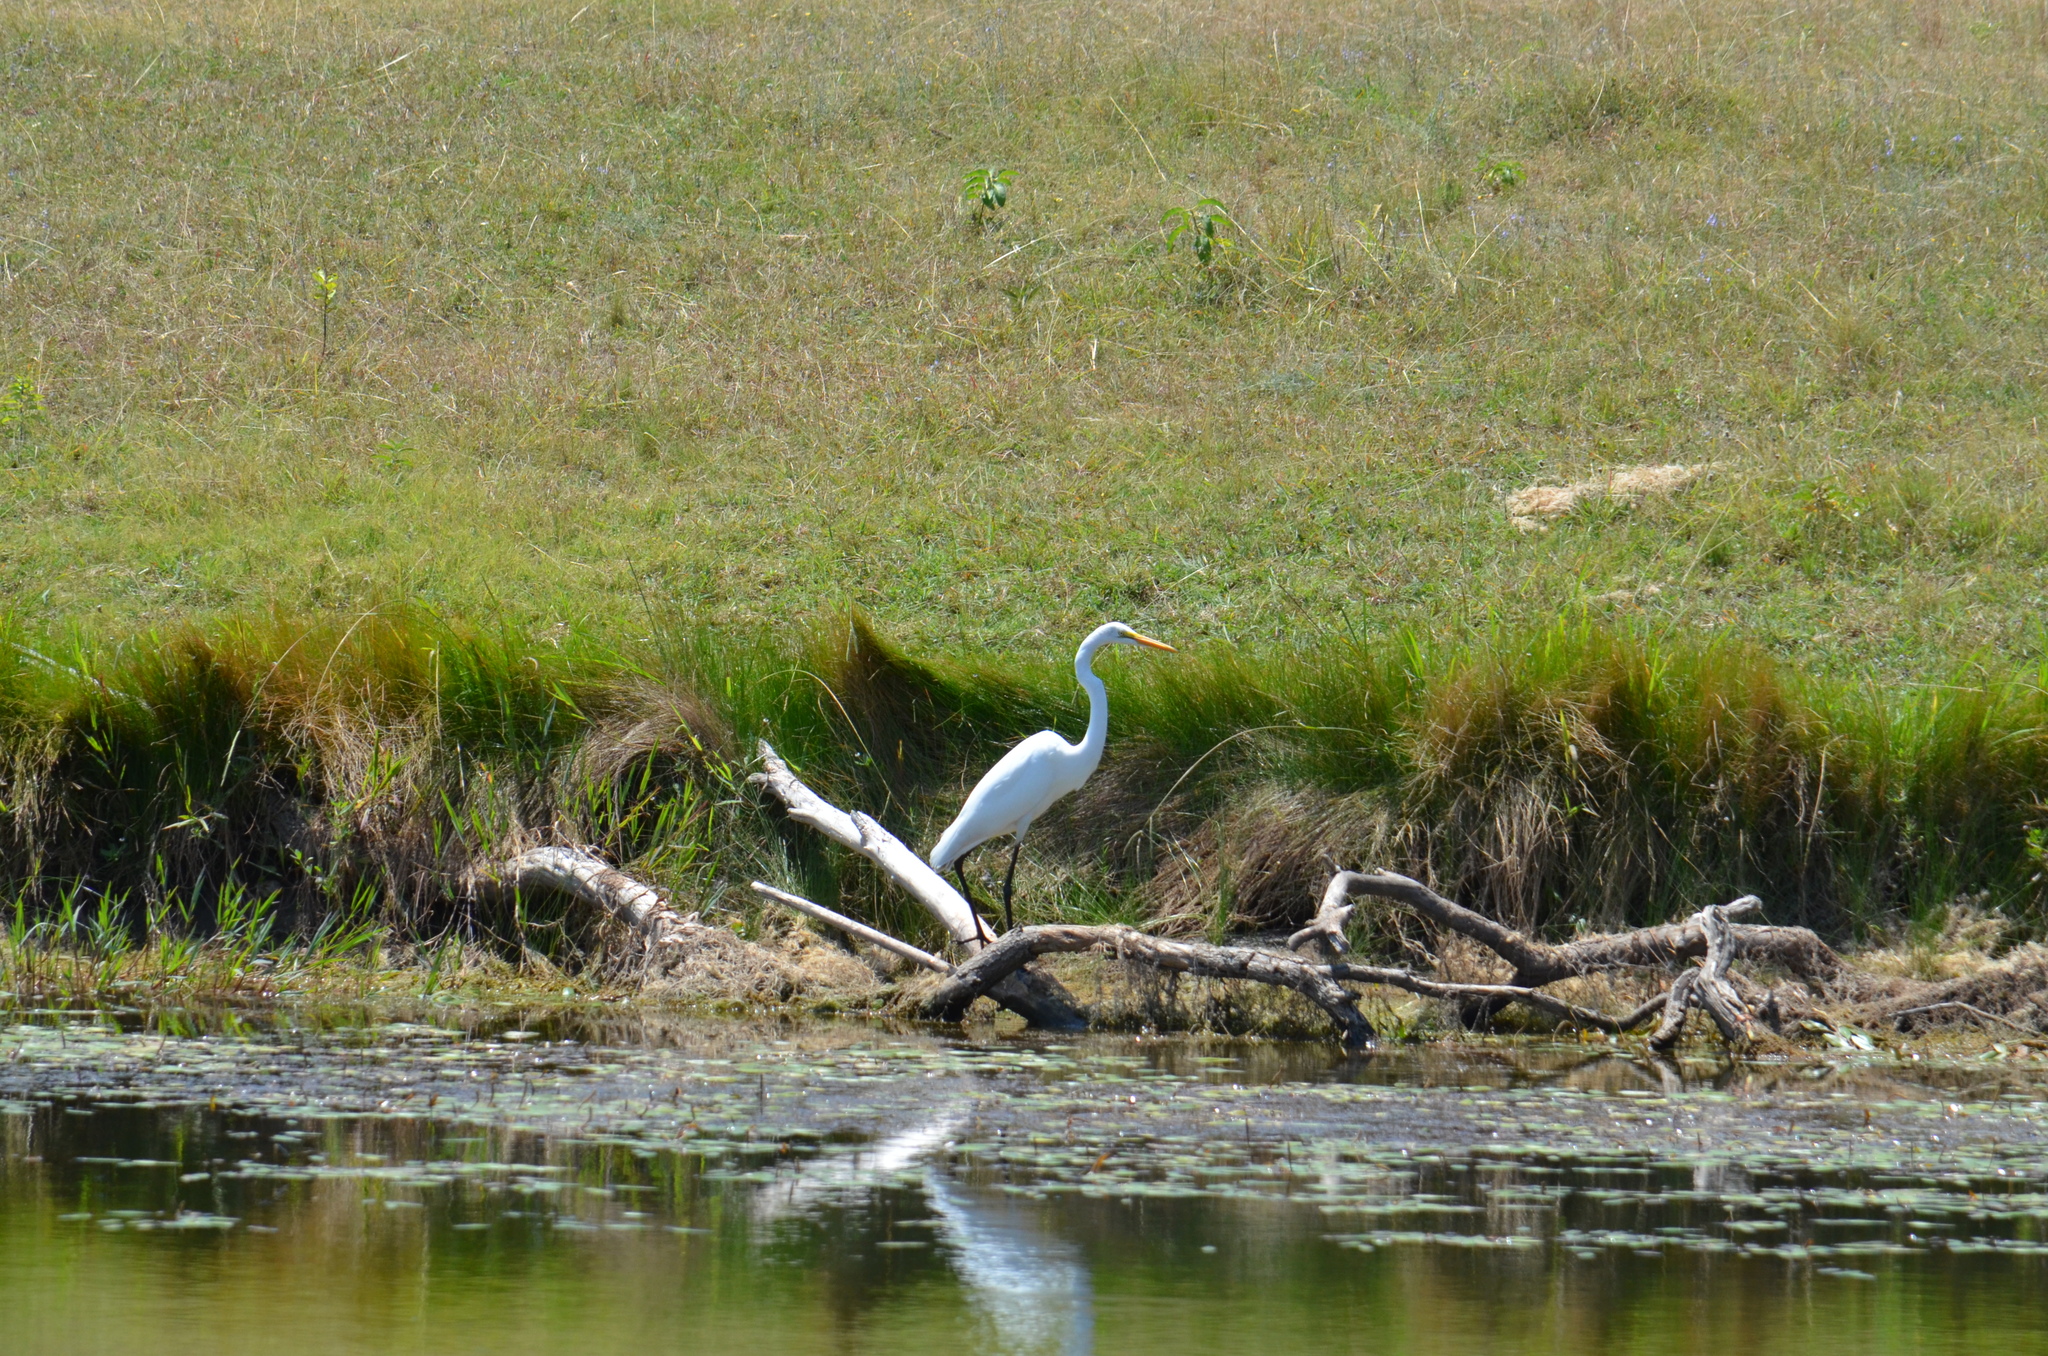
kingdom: Animalia
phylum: Chordata
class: Aves
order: Pelecaniformes
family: Ardeidae
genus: Ardea
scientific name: Ardea alba
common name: Great egret
